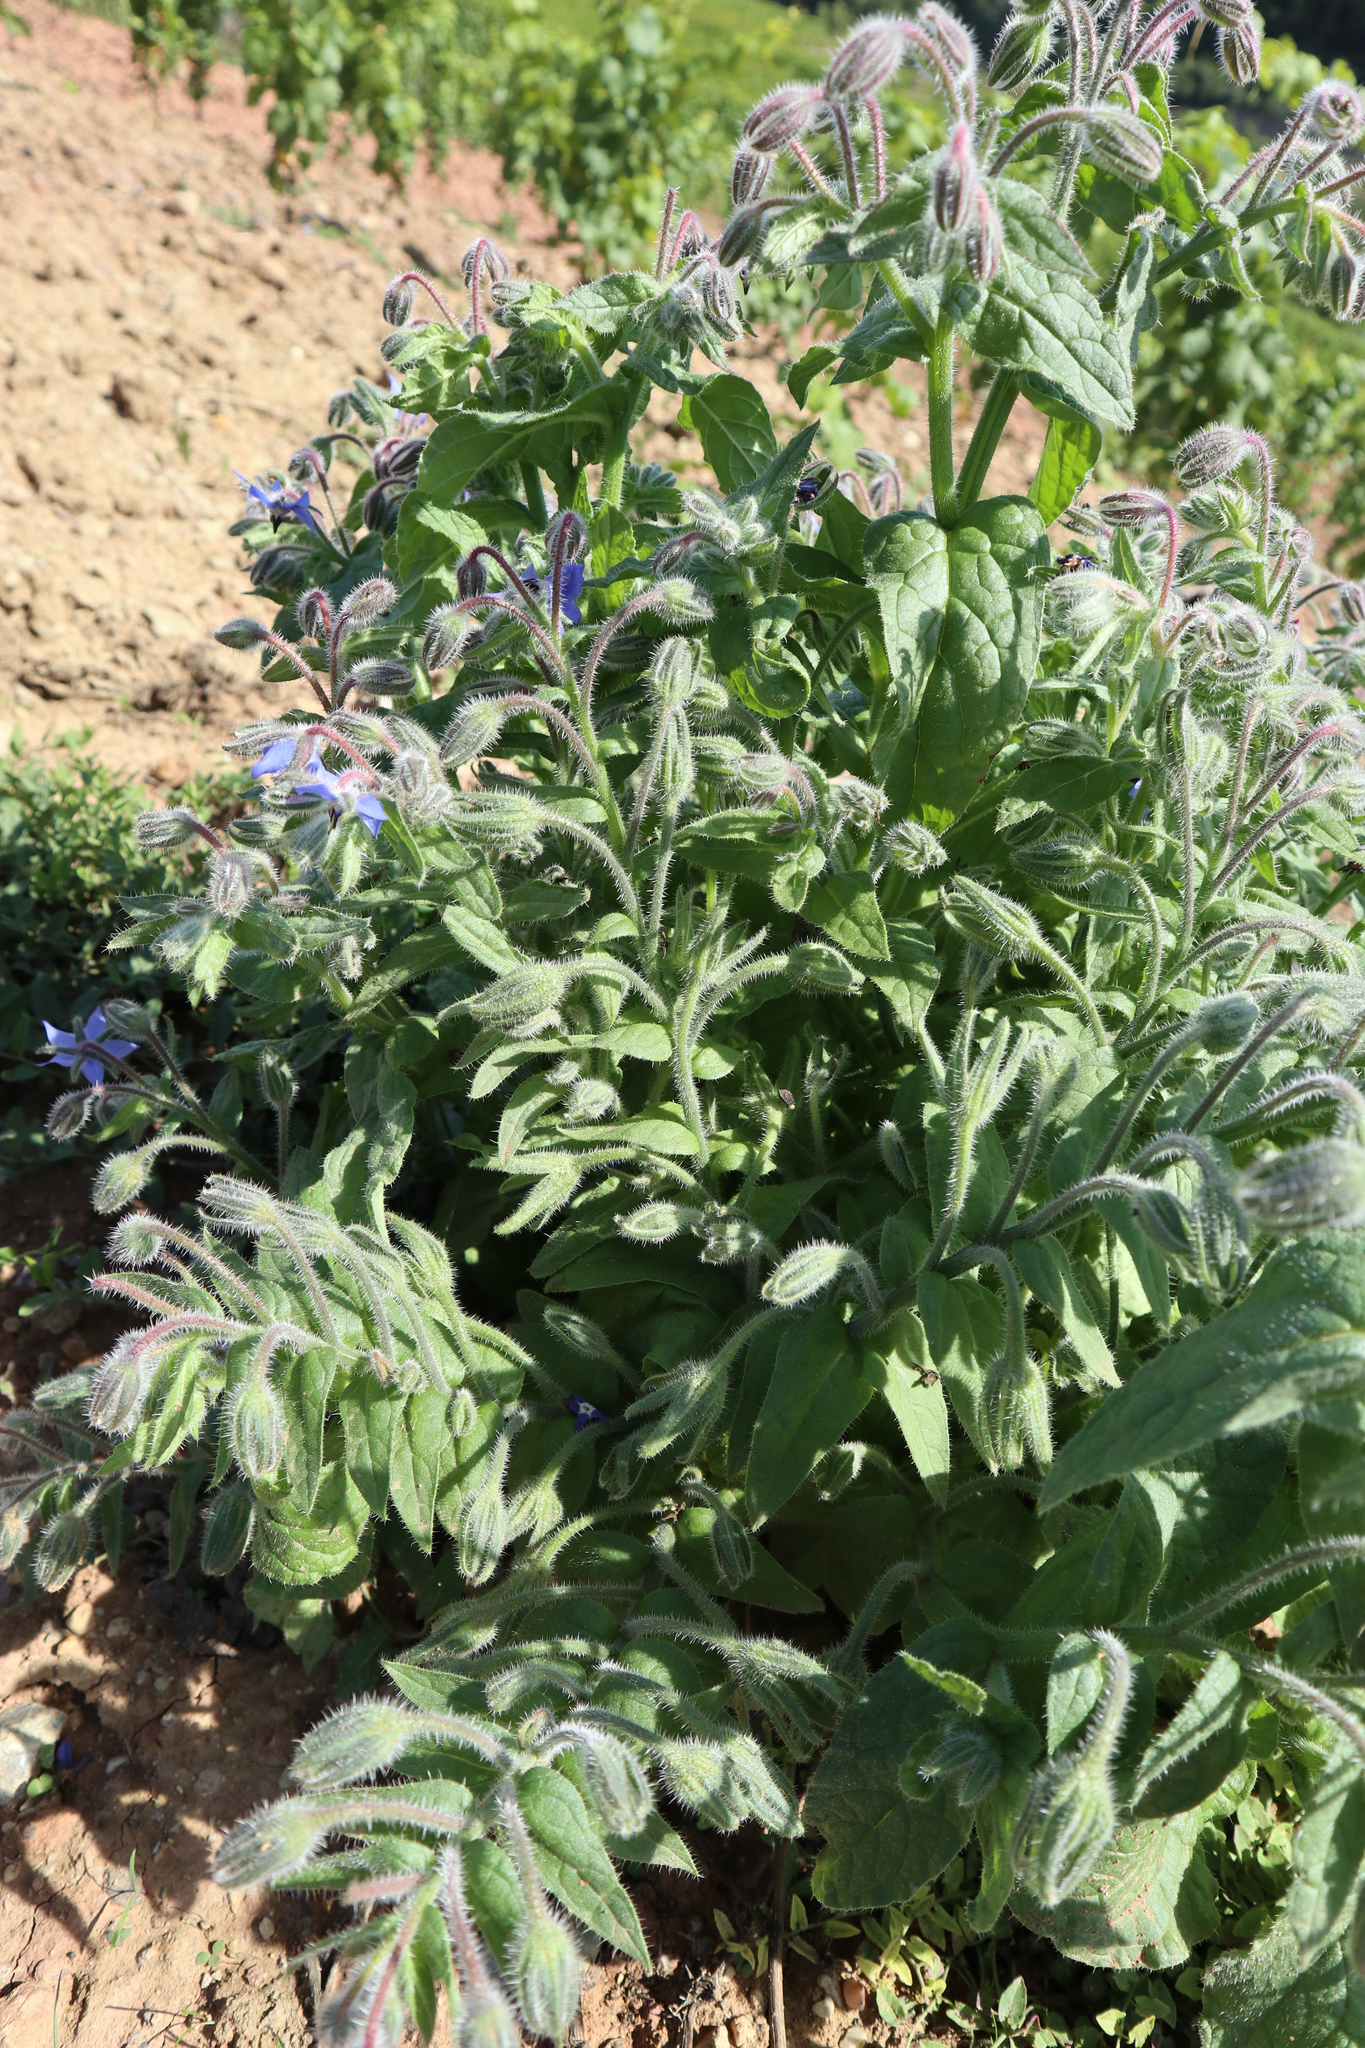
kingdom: Plantae
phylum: Tracheophyta
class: Magnoliopsida
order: Boraginales
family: Boraginaceae
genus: Borago
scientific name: Borago officinalis
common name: Borage
